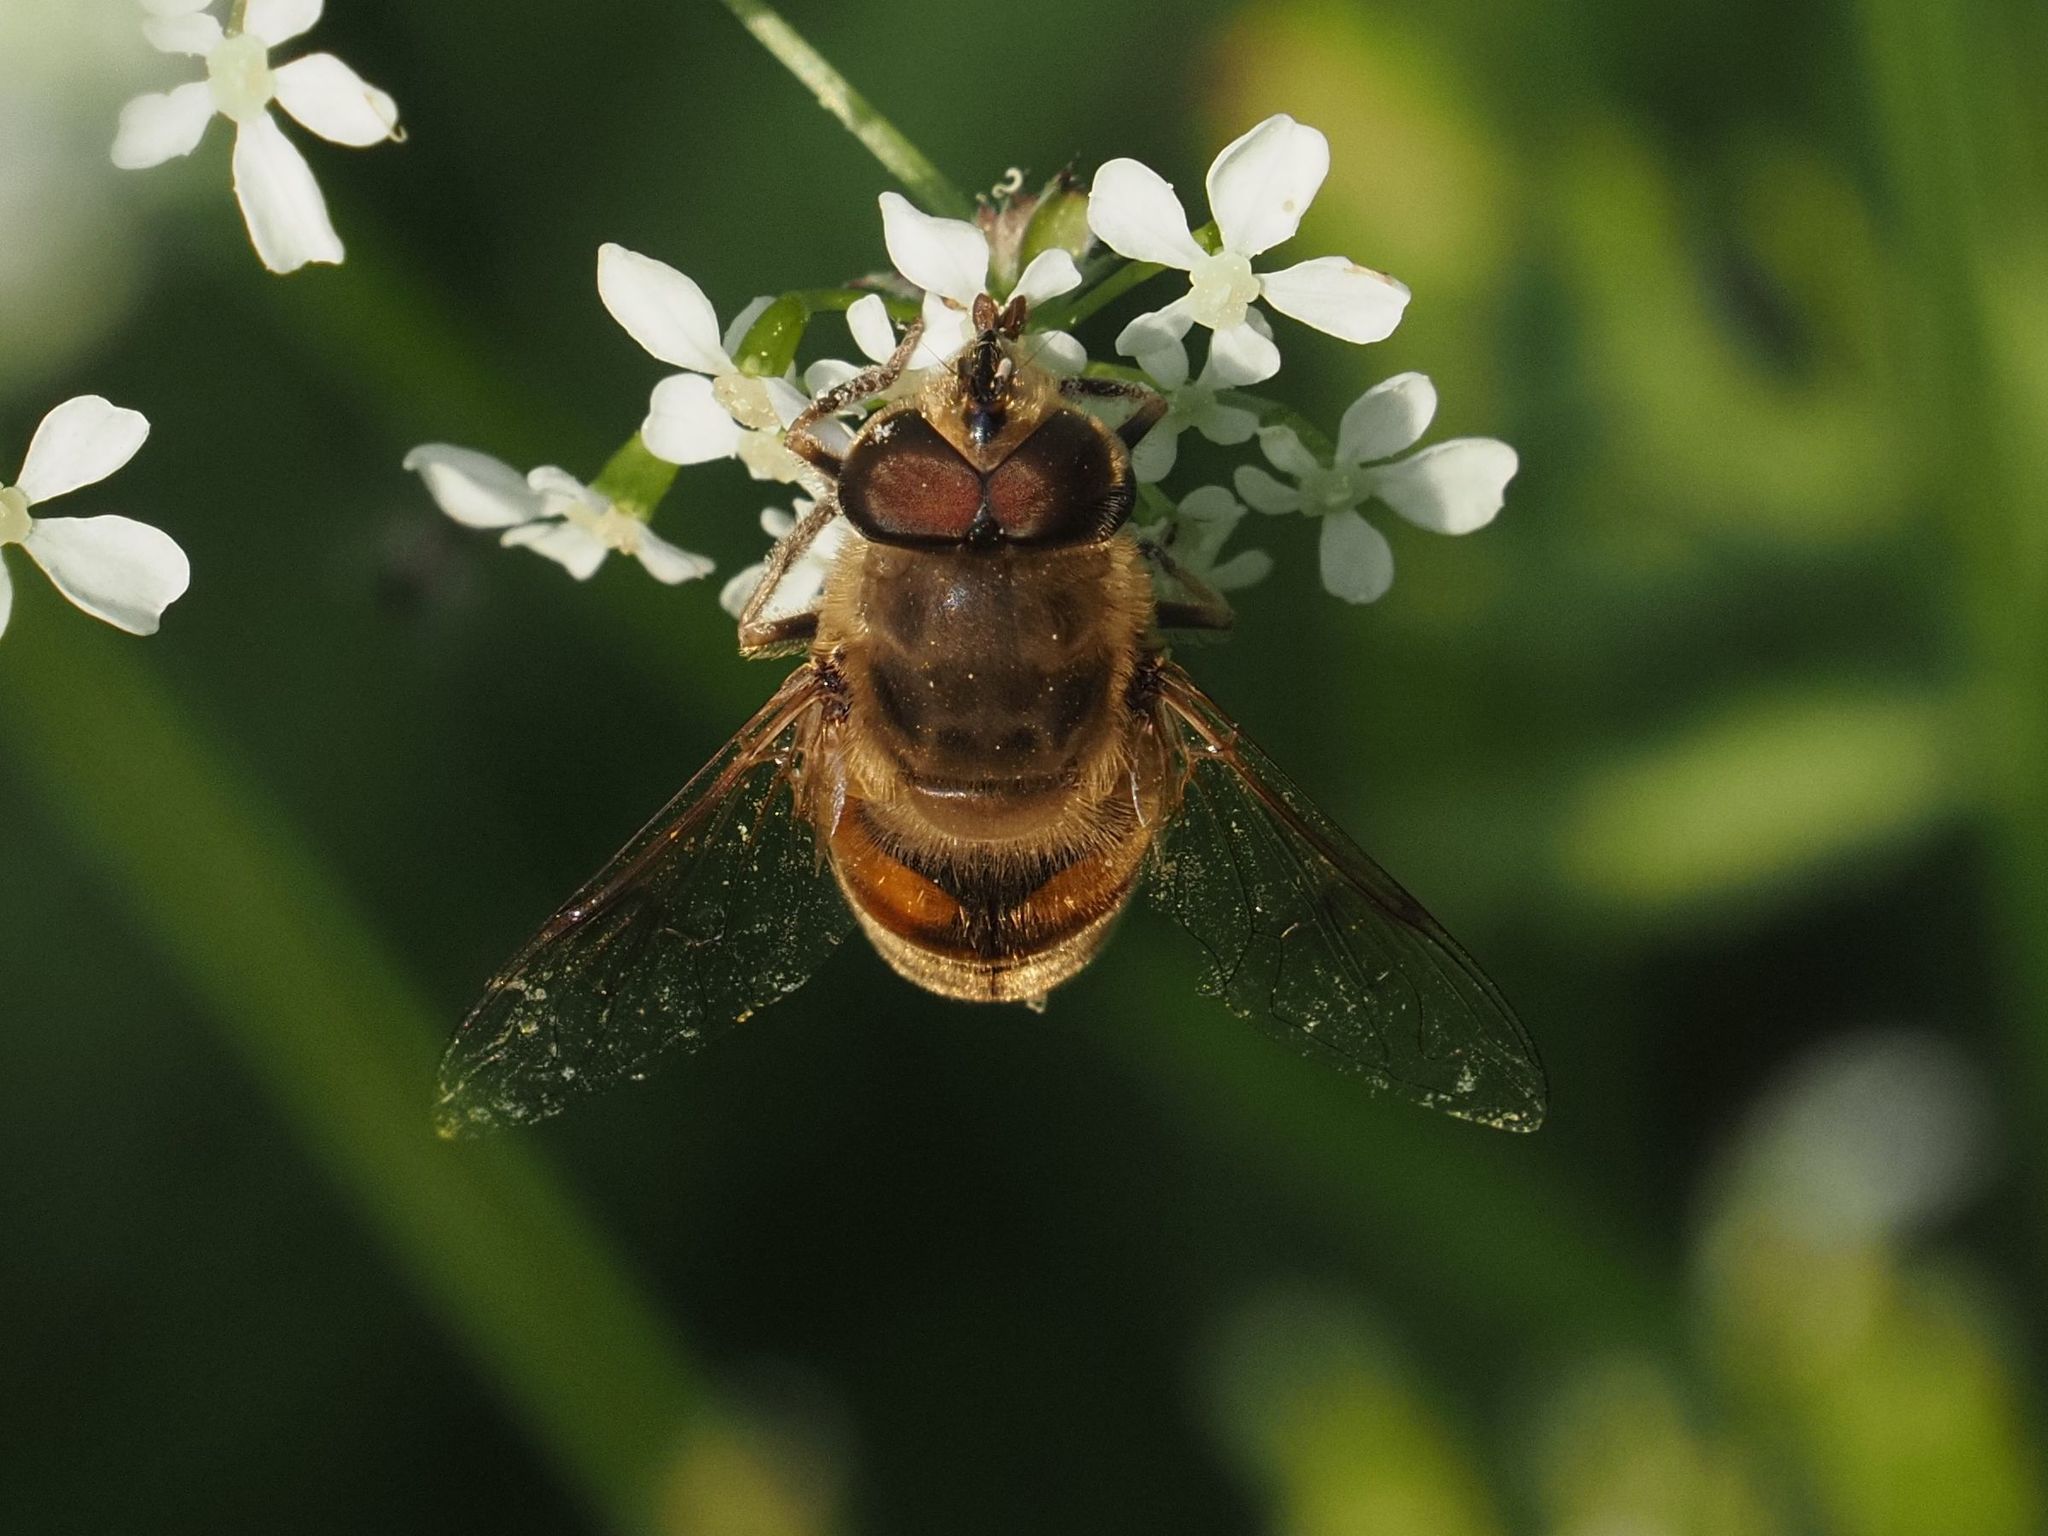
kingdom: Animalia
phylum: Arthropoda
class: Insecta
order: Diptera
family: Syrphidae
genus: Eristalis
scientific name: Eristalis tenax
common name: Drone fly
